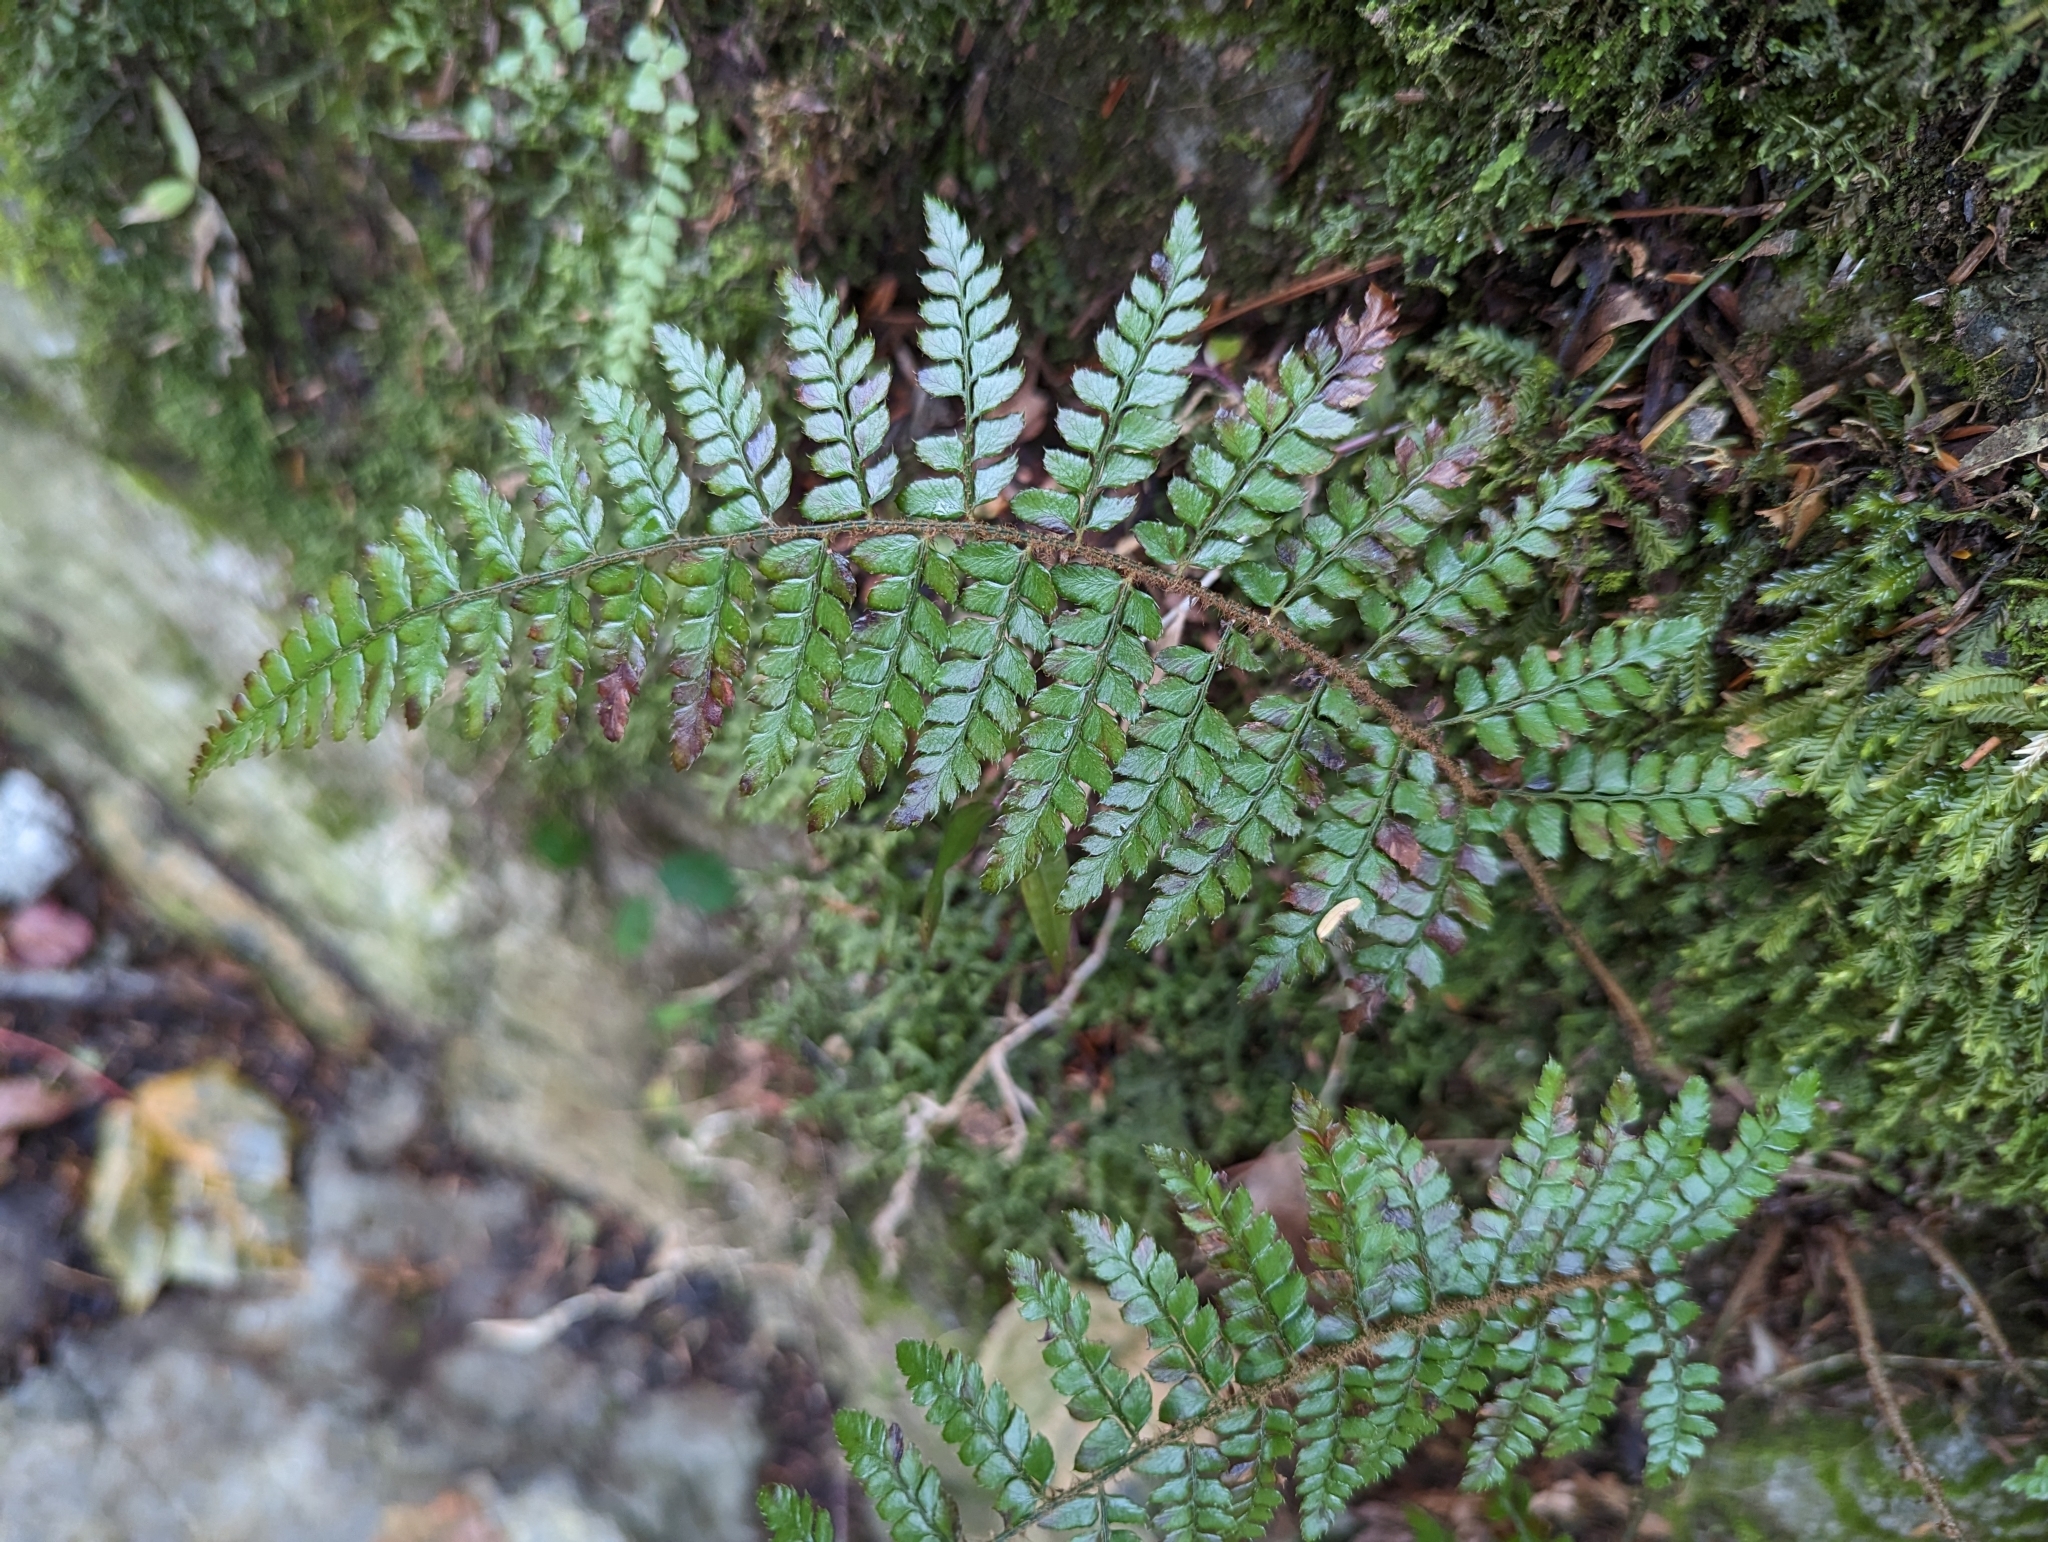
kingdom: Plantae
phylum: Tracheophyta
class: Polypodiopsida
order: Polypodiales
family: Dryopteridaceae
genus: Polystichum
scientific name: Polystichum parvipinnulum
